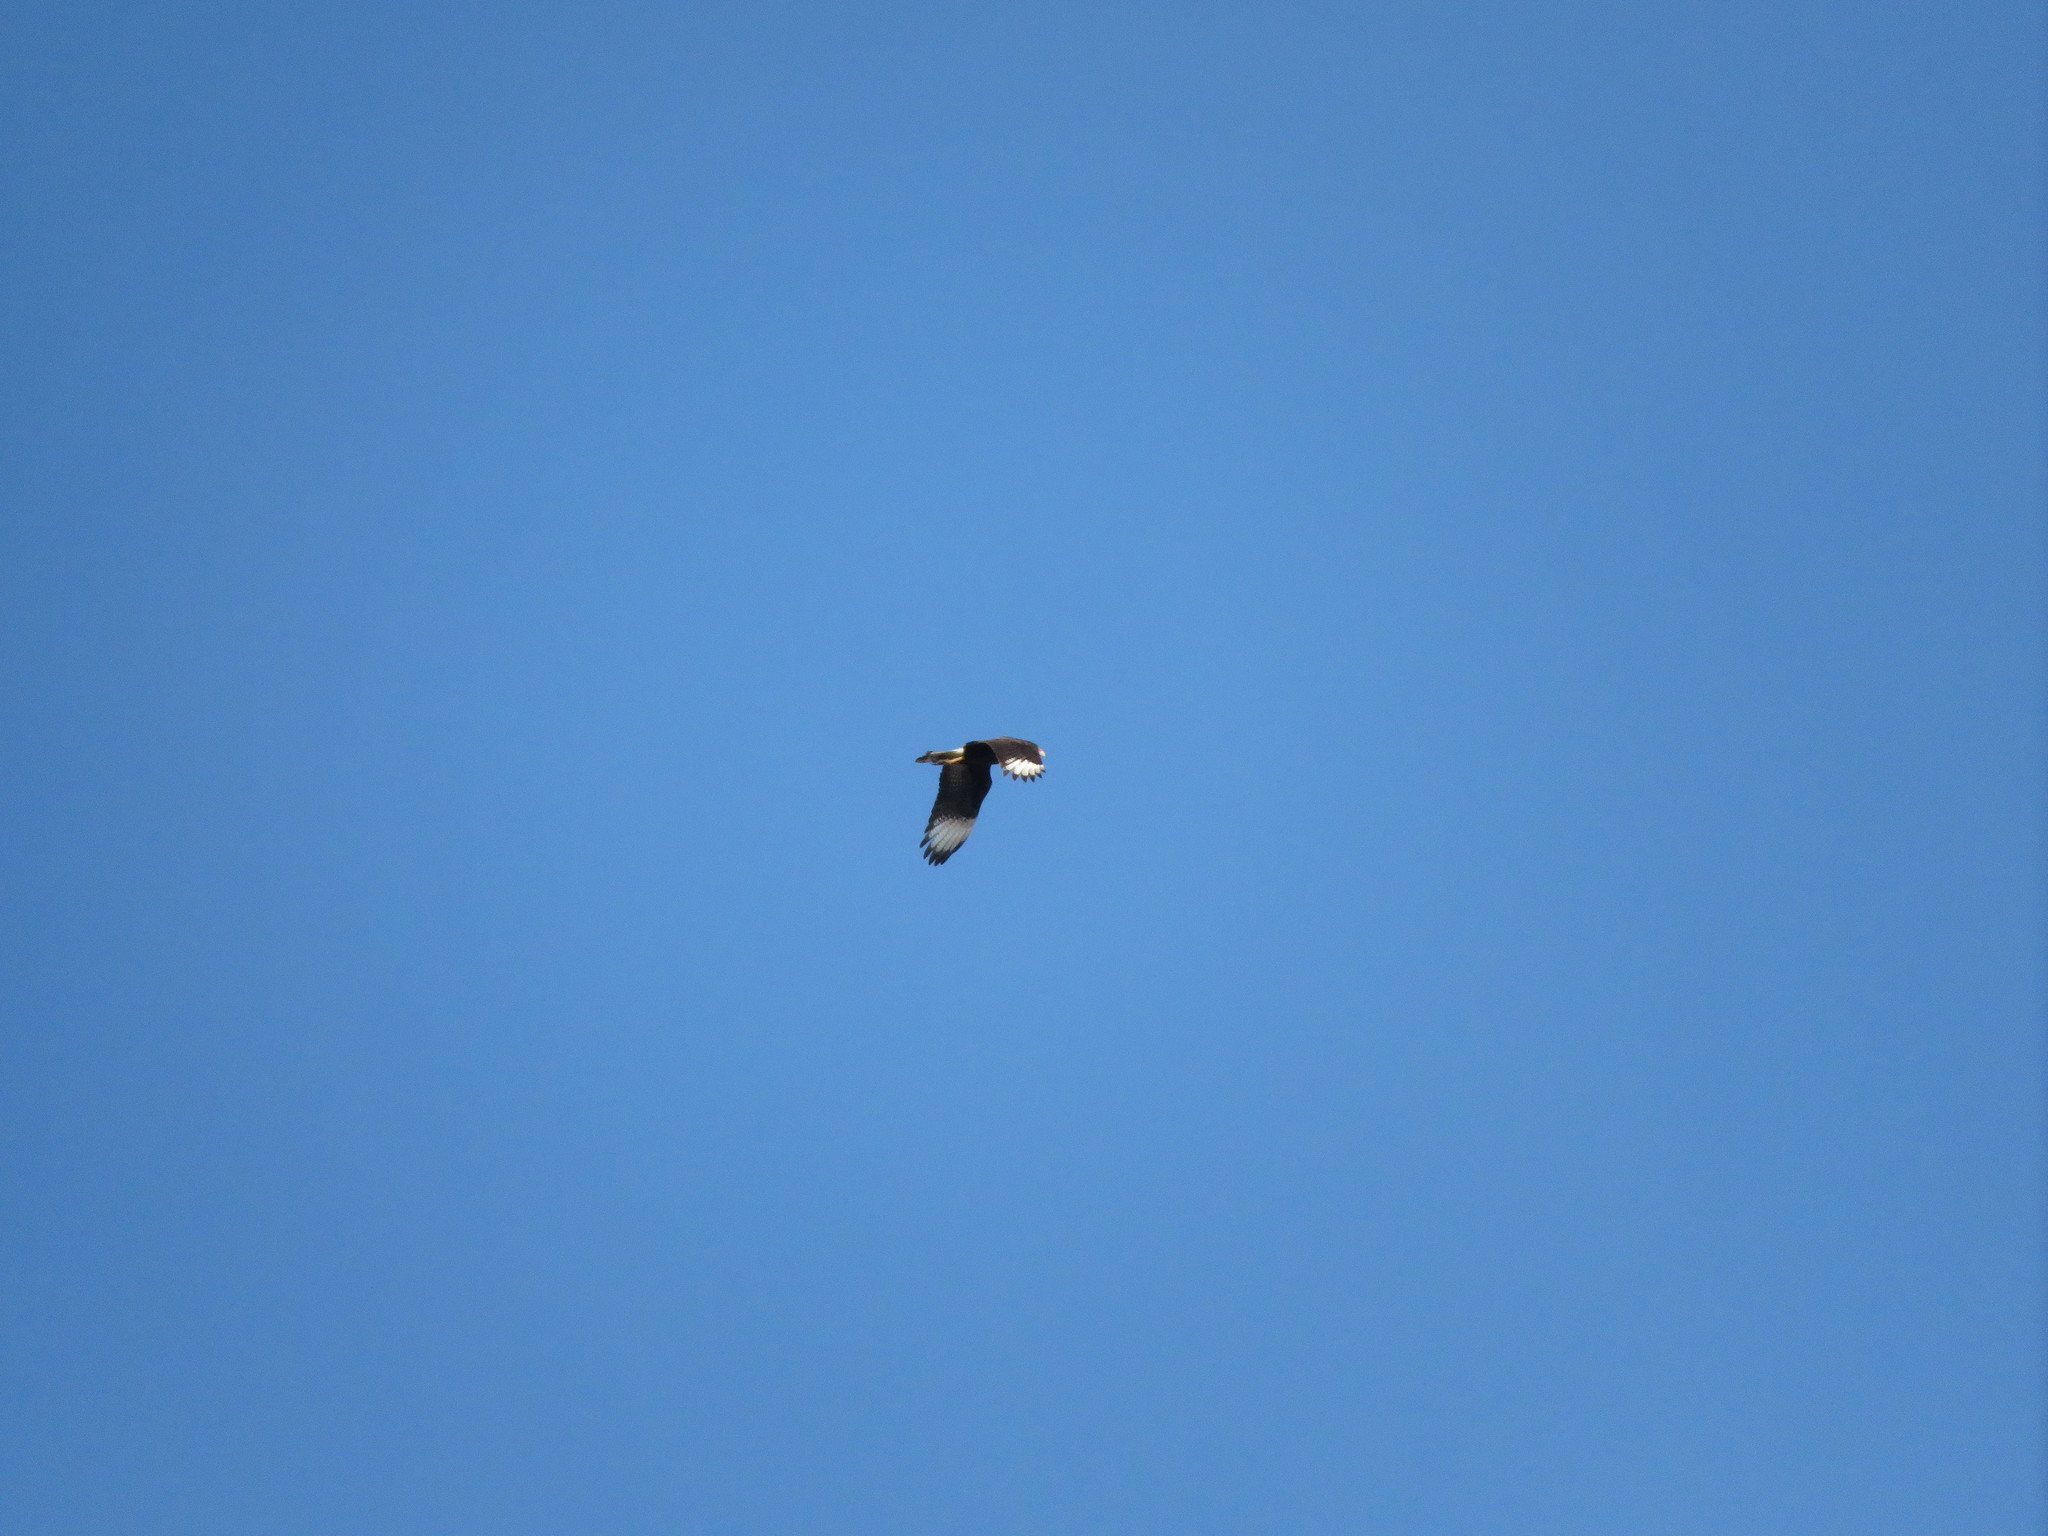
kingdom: Animalia
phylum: Chordata
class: Aves
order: Falconiformes
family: Falconidae
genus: Caracara
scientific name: Caracara plancus
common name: Southern caracara
